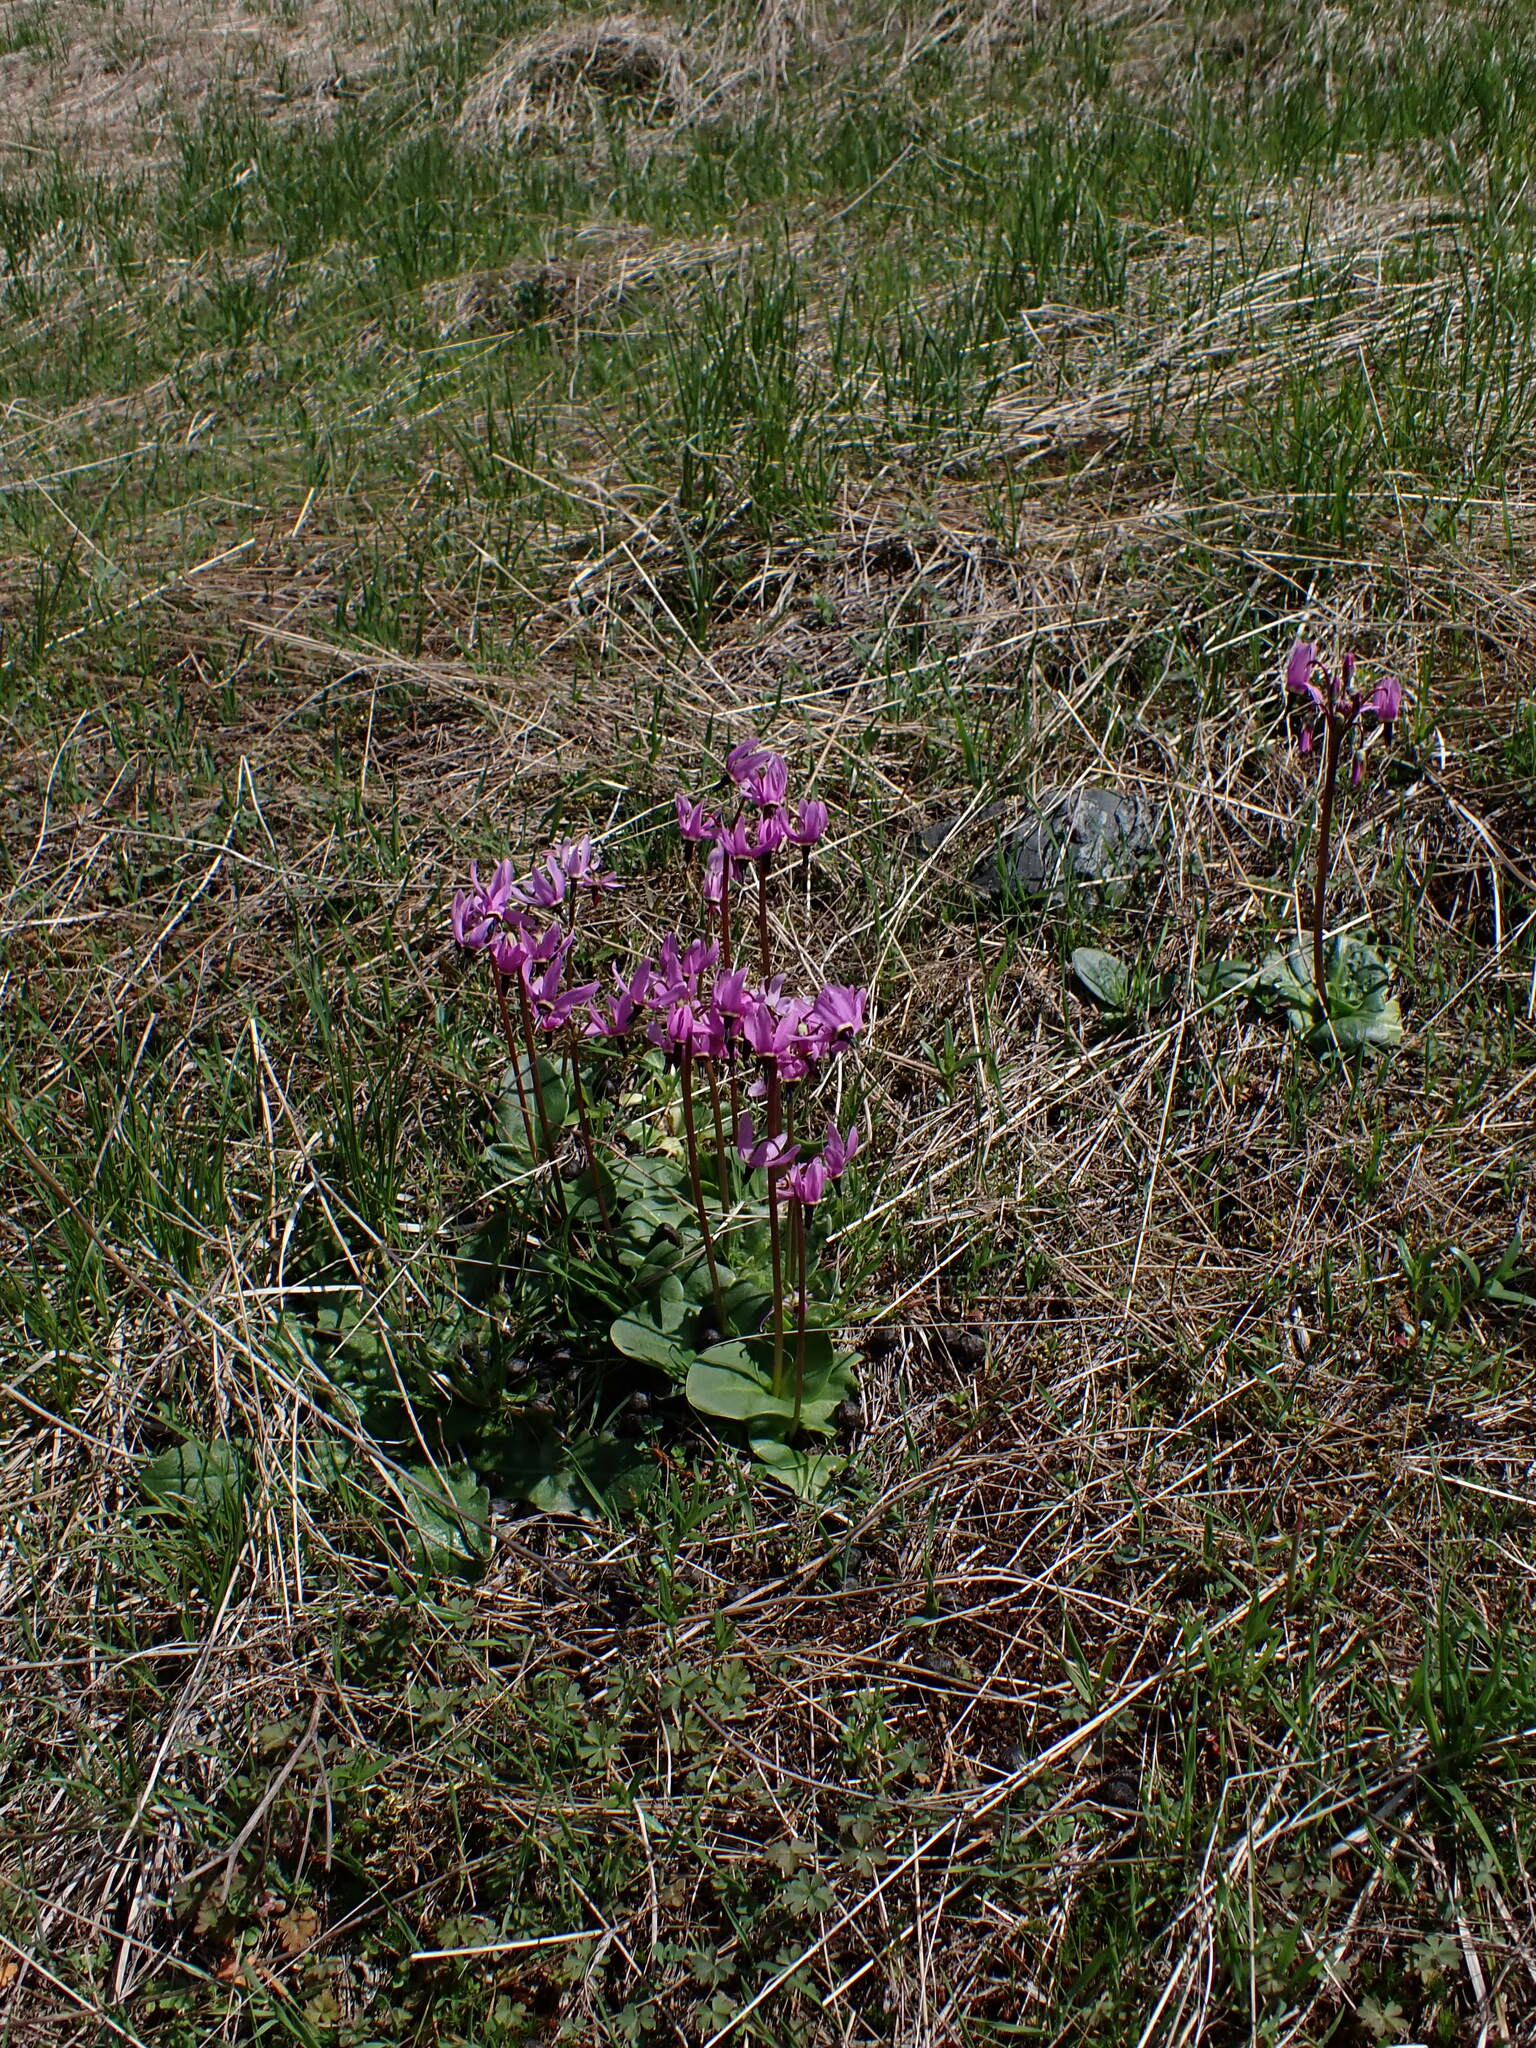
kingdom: Plantae
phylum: Tracheophyta
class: Magnoliopsida
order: Ericales
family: Primulaceae
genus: Dodecatheon
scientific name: Dodecatheon hendersonii
